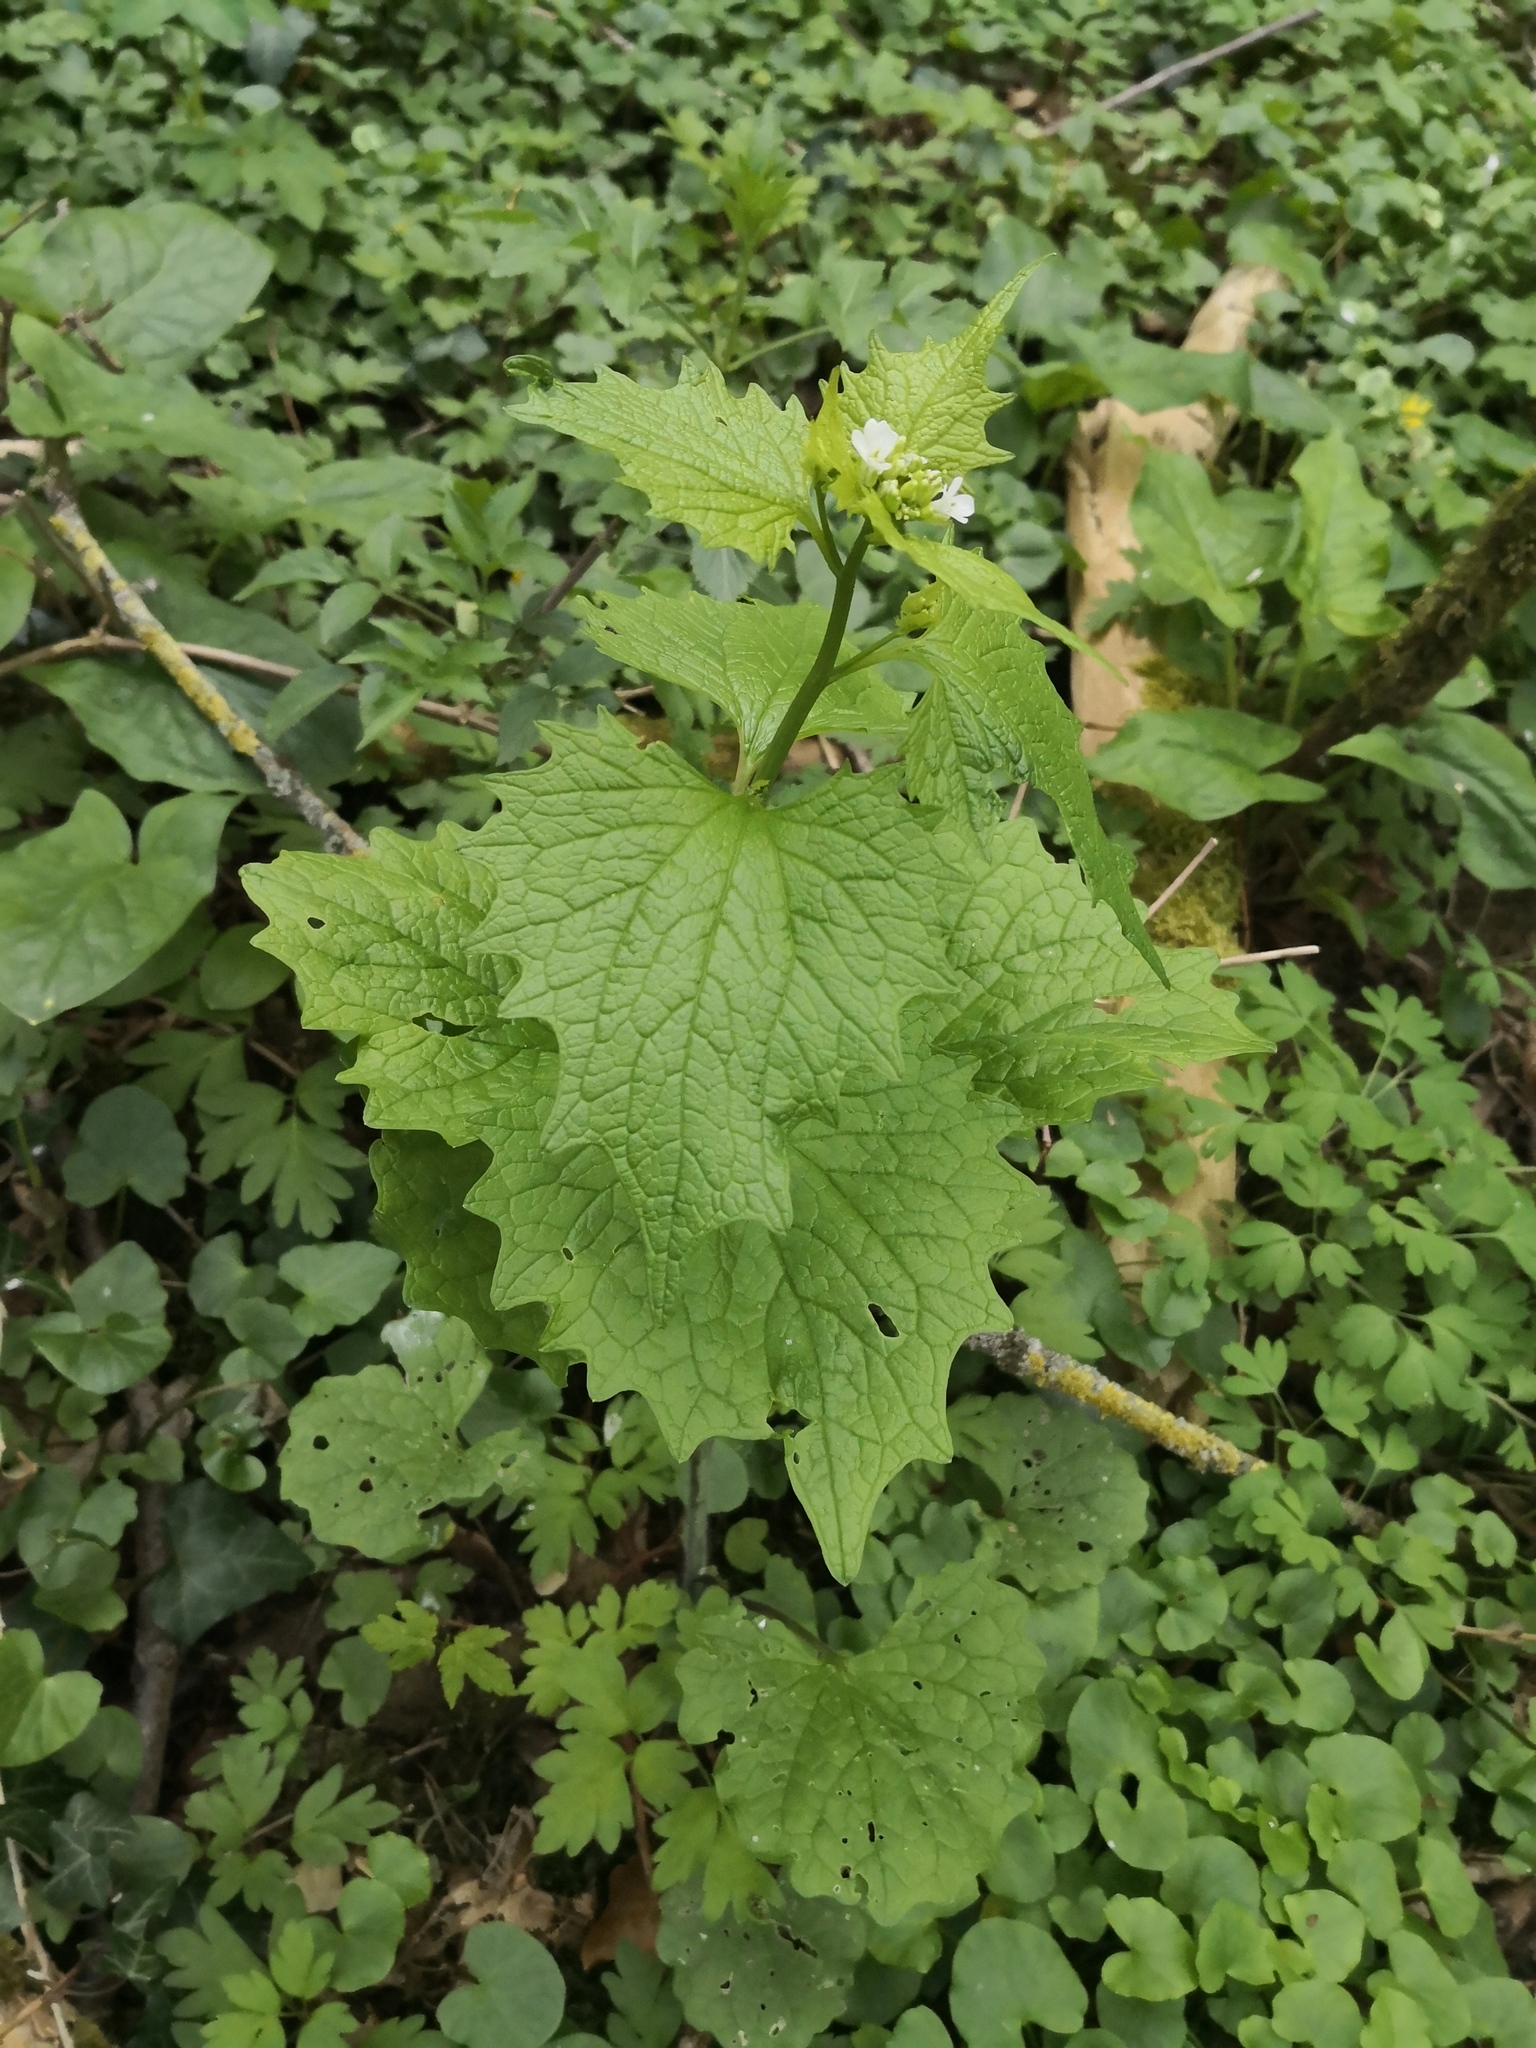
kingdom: Plantae
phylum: Tracheophyta
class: Magnoliopsida
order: Brassicales
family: Brassicaceae
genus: Alliaria
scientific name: Alliaria petiolata
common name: Garlic mustard
